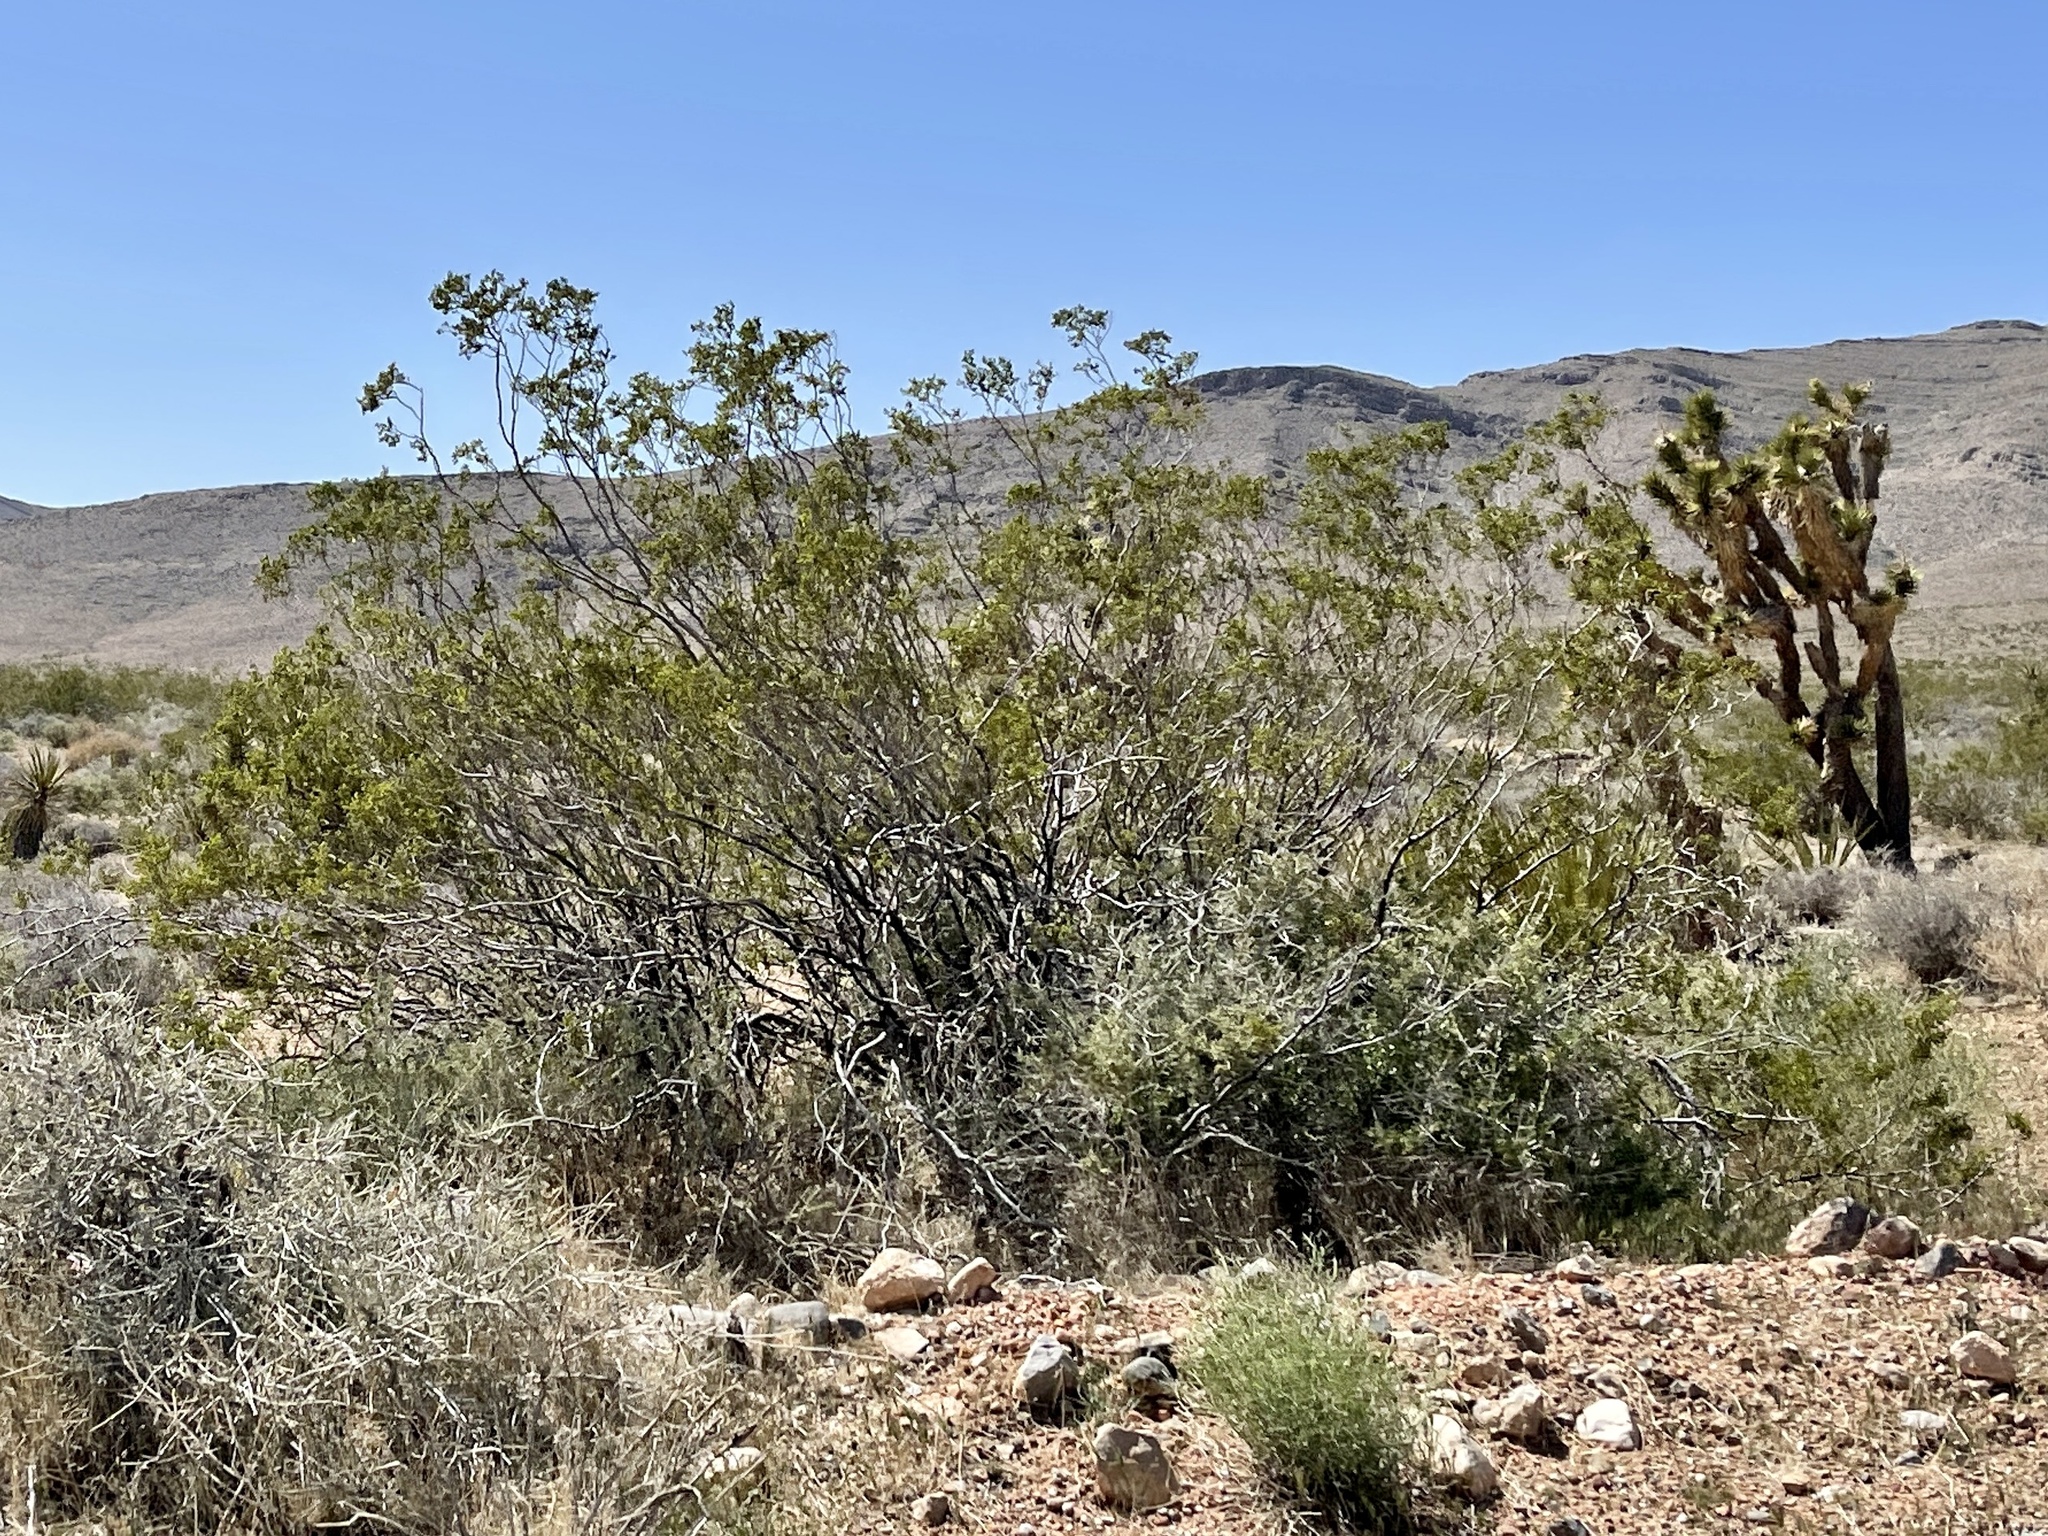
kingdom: Plantae
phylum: Tracheophyta
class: Magnoliopsida
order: Zygophyllales
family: Zygophyllaceae
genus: Larrea
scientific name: Larrea tridentata
